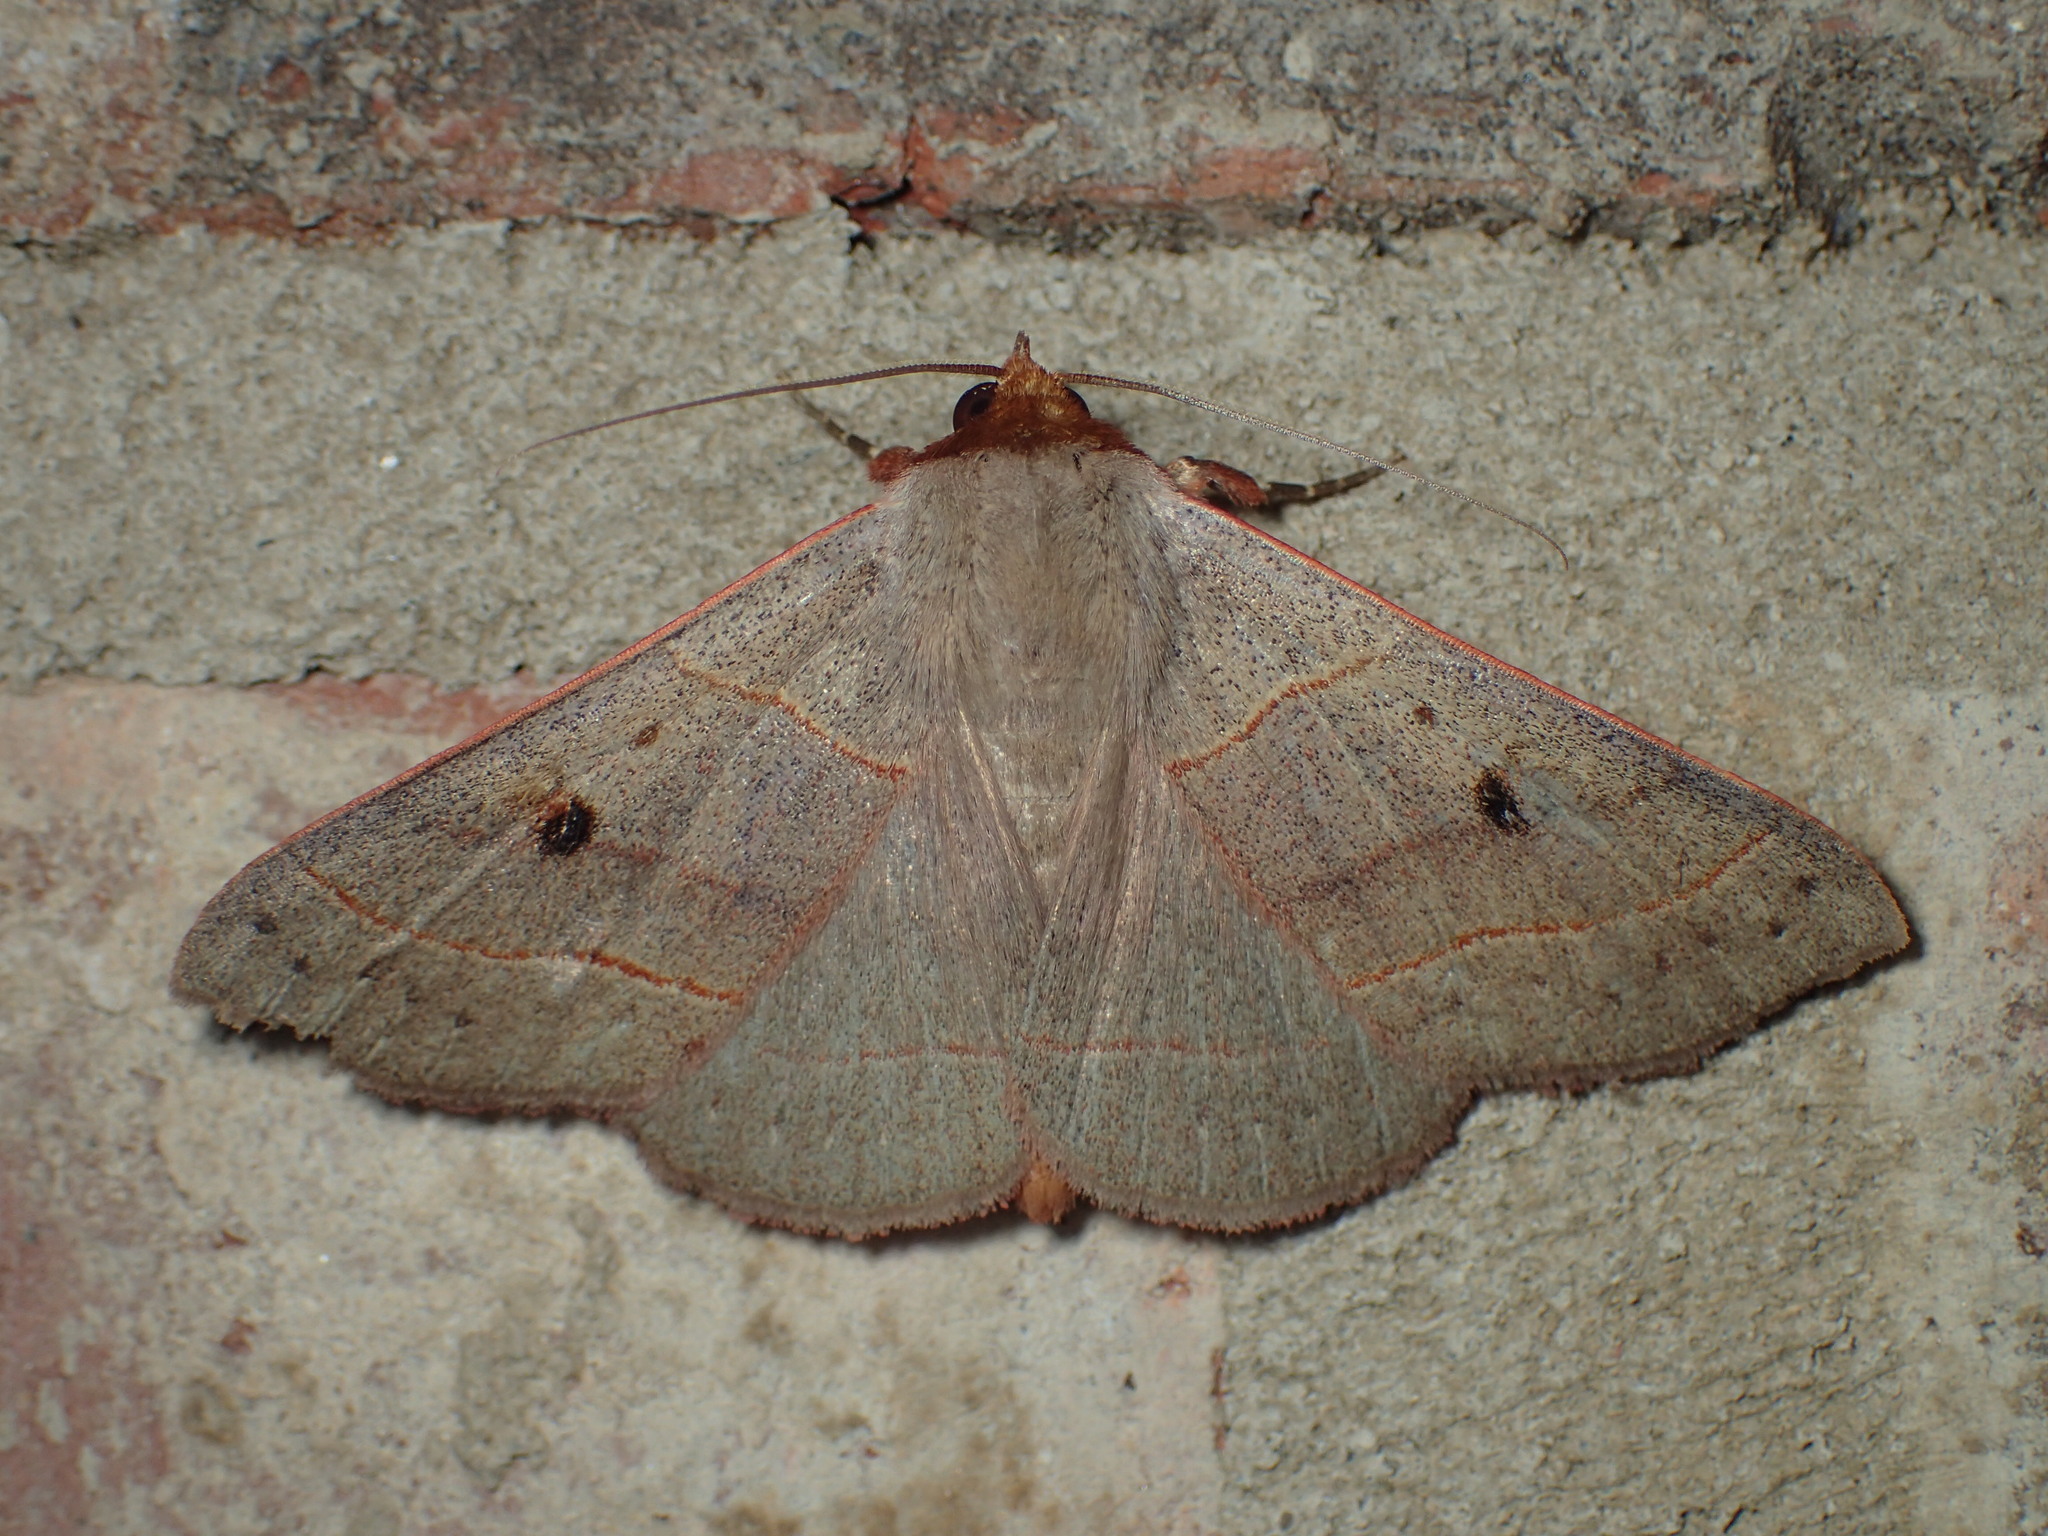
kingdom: Animalia
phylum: Arthropoda
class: Insecta
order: Lepidoptera
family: Erebidae
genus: Panopoda
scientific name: Panopoda rufimargo
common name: Red-lined panopoda moth
